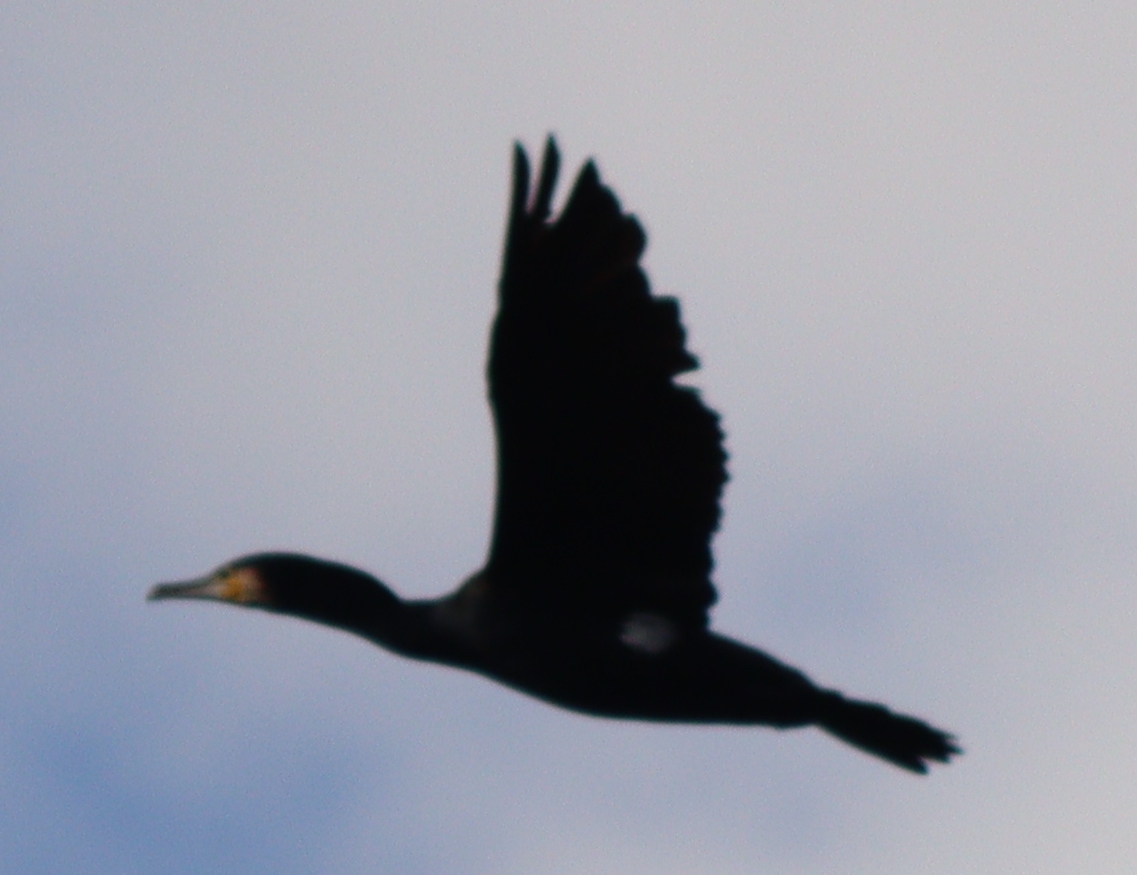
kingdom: Animalia
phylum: Chordata
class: Aves
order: Suliformes
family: Phalacrocoracidae
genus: Phalacrocorax
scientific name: Phalacrocorax carbo
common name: Great cormorant
